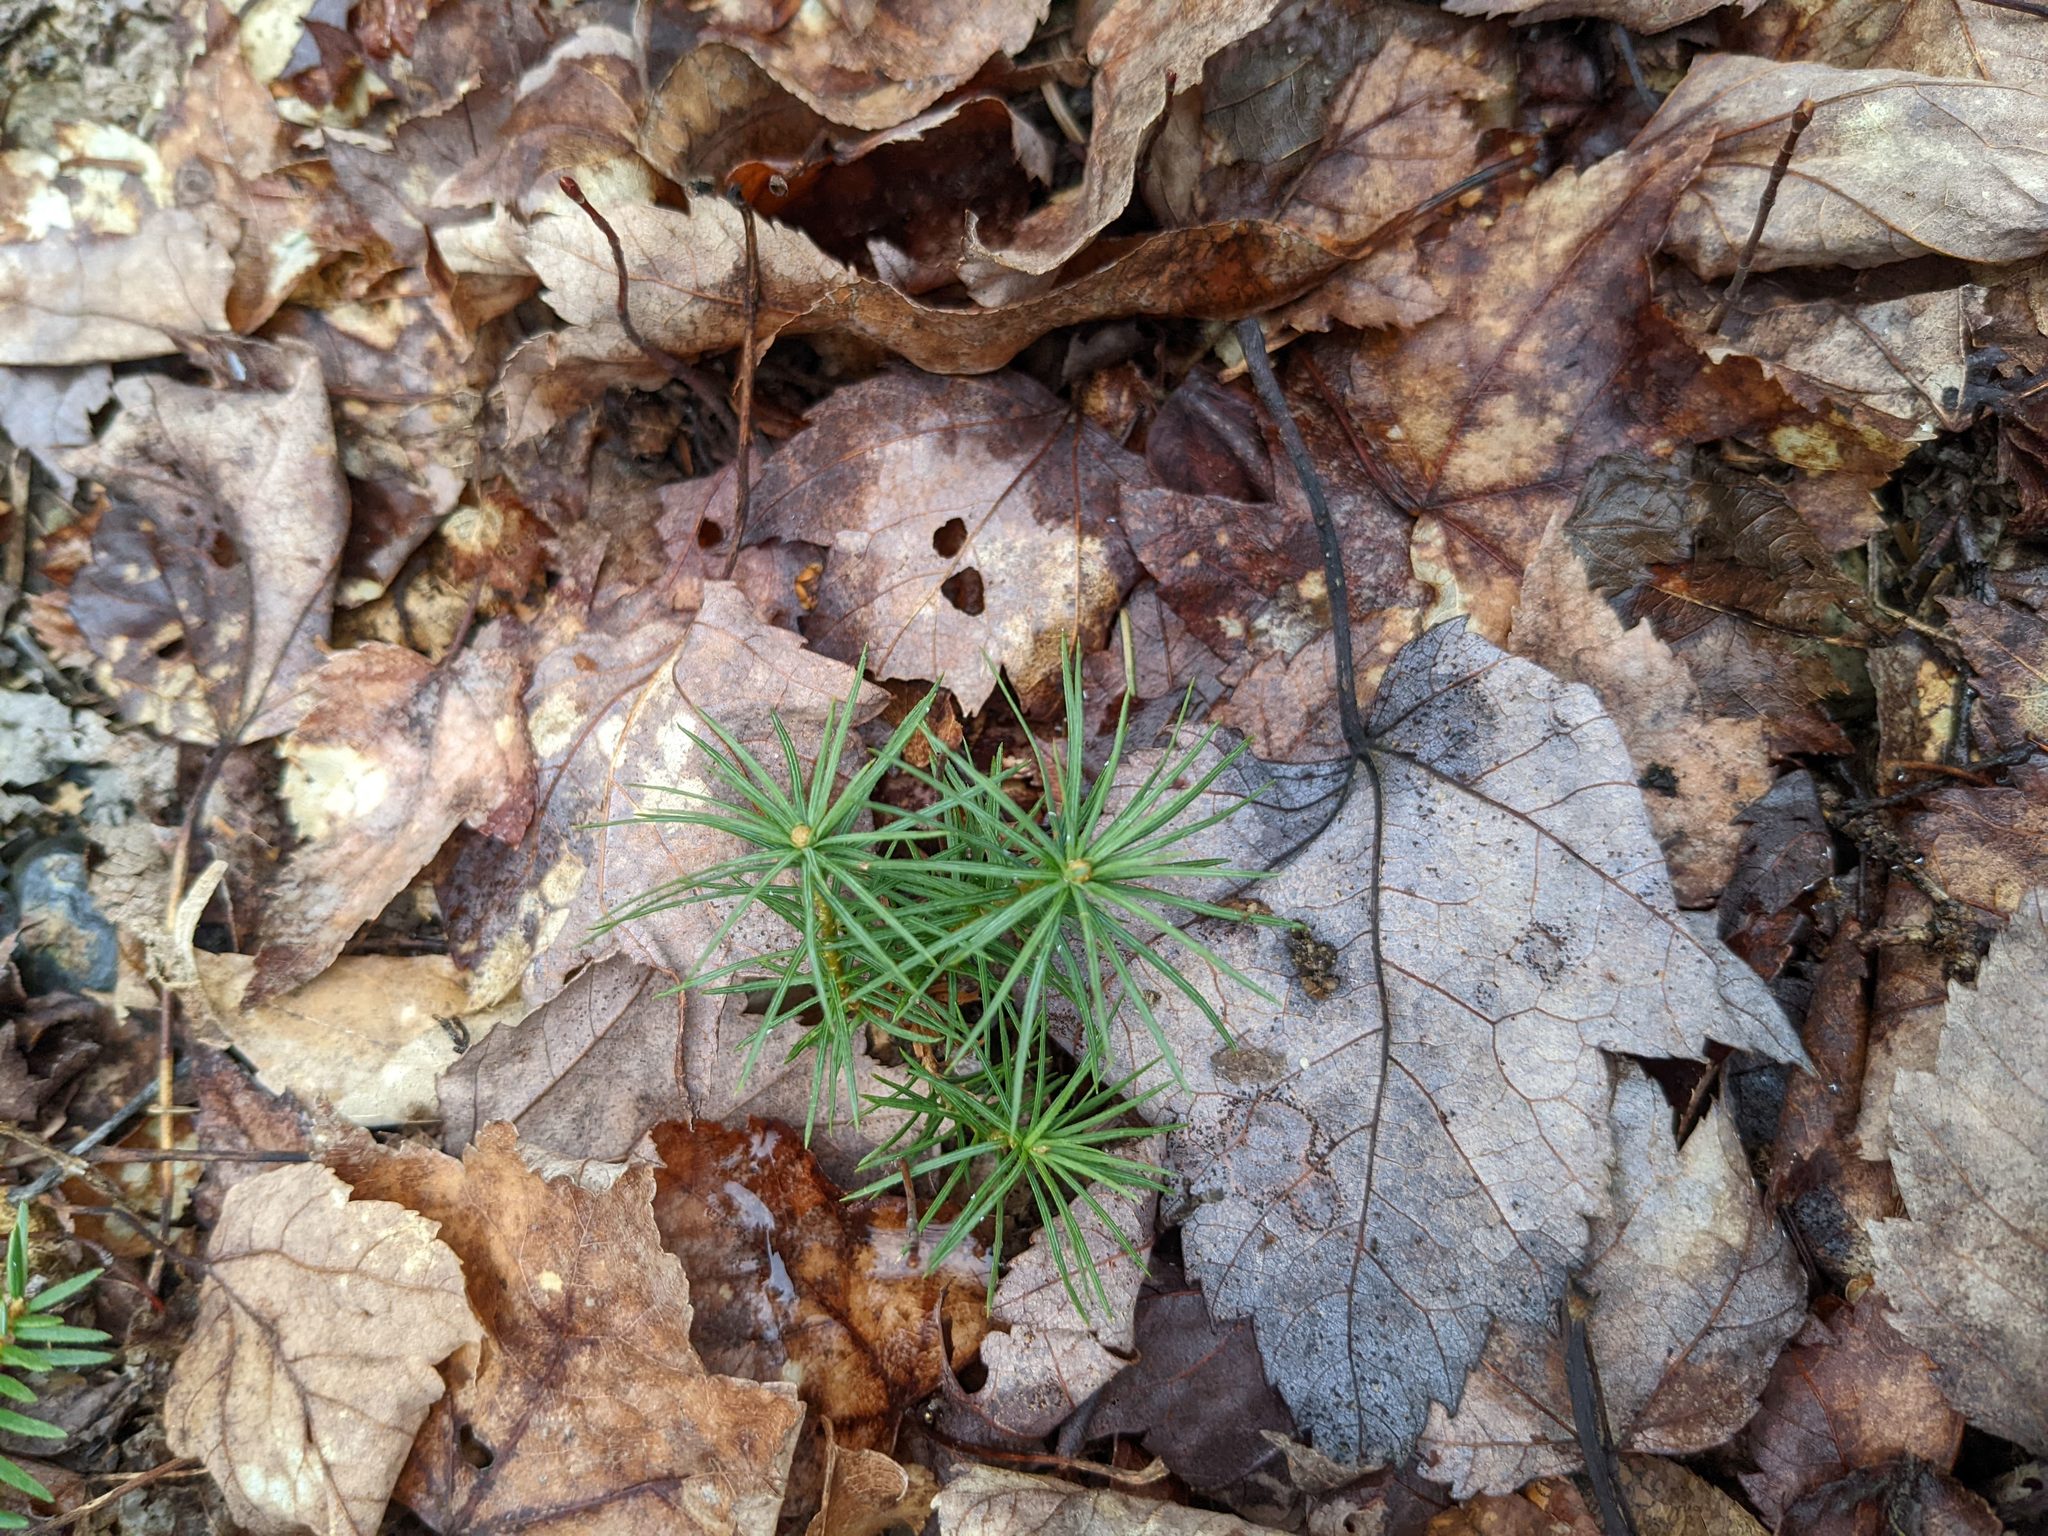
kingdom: Plantae
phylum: Tracheophyta
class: Pinopsida
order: Pinales
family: Pinaceae
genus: Pinus
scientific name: Pinus strobus
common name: Weymouth pine
